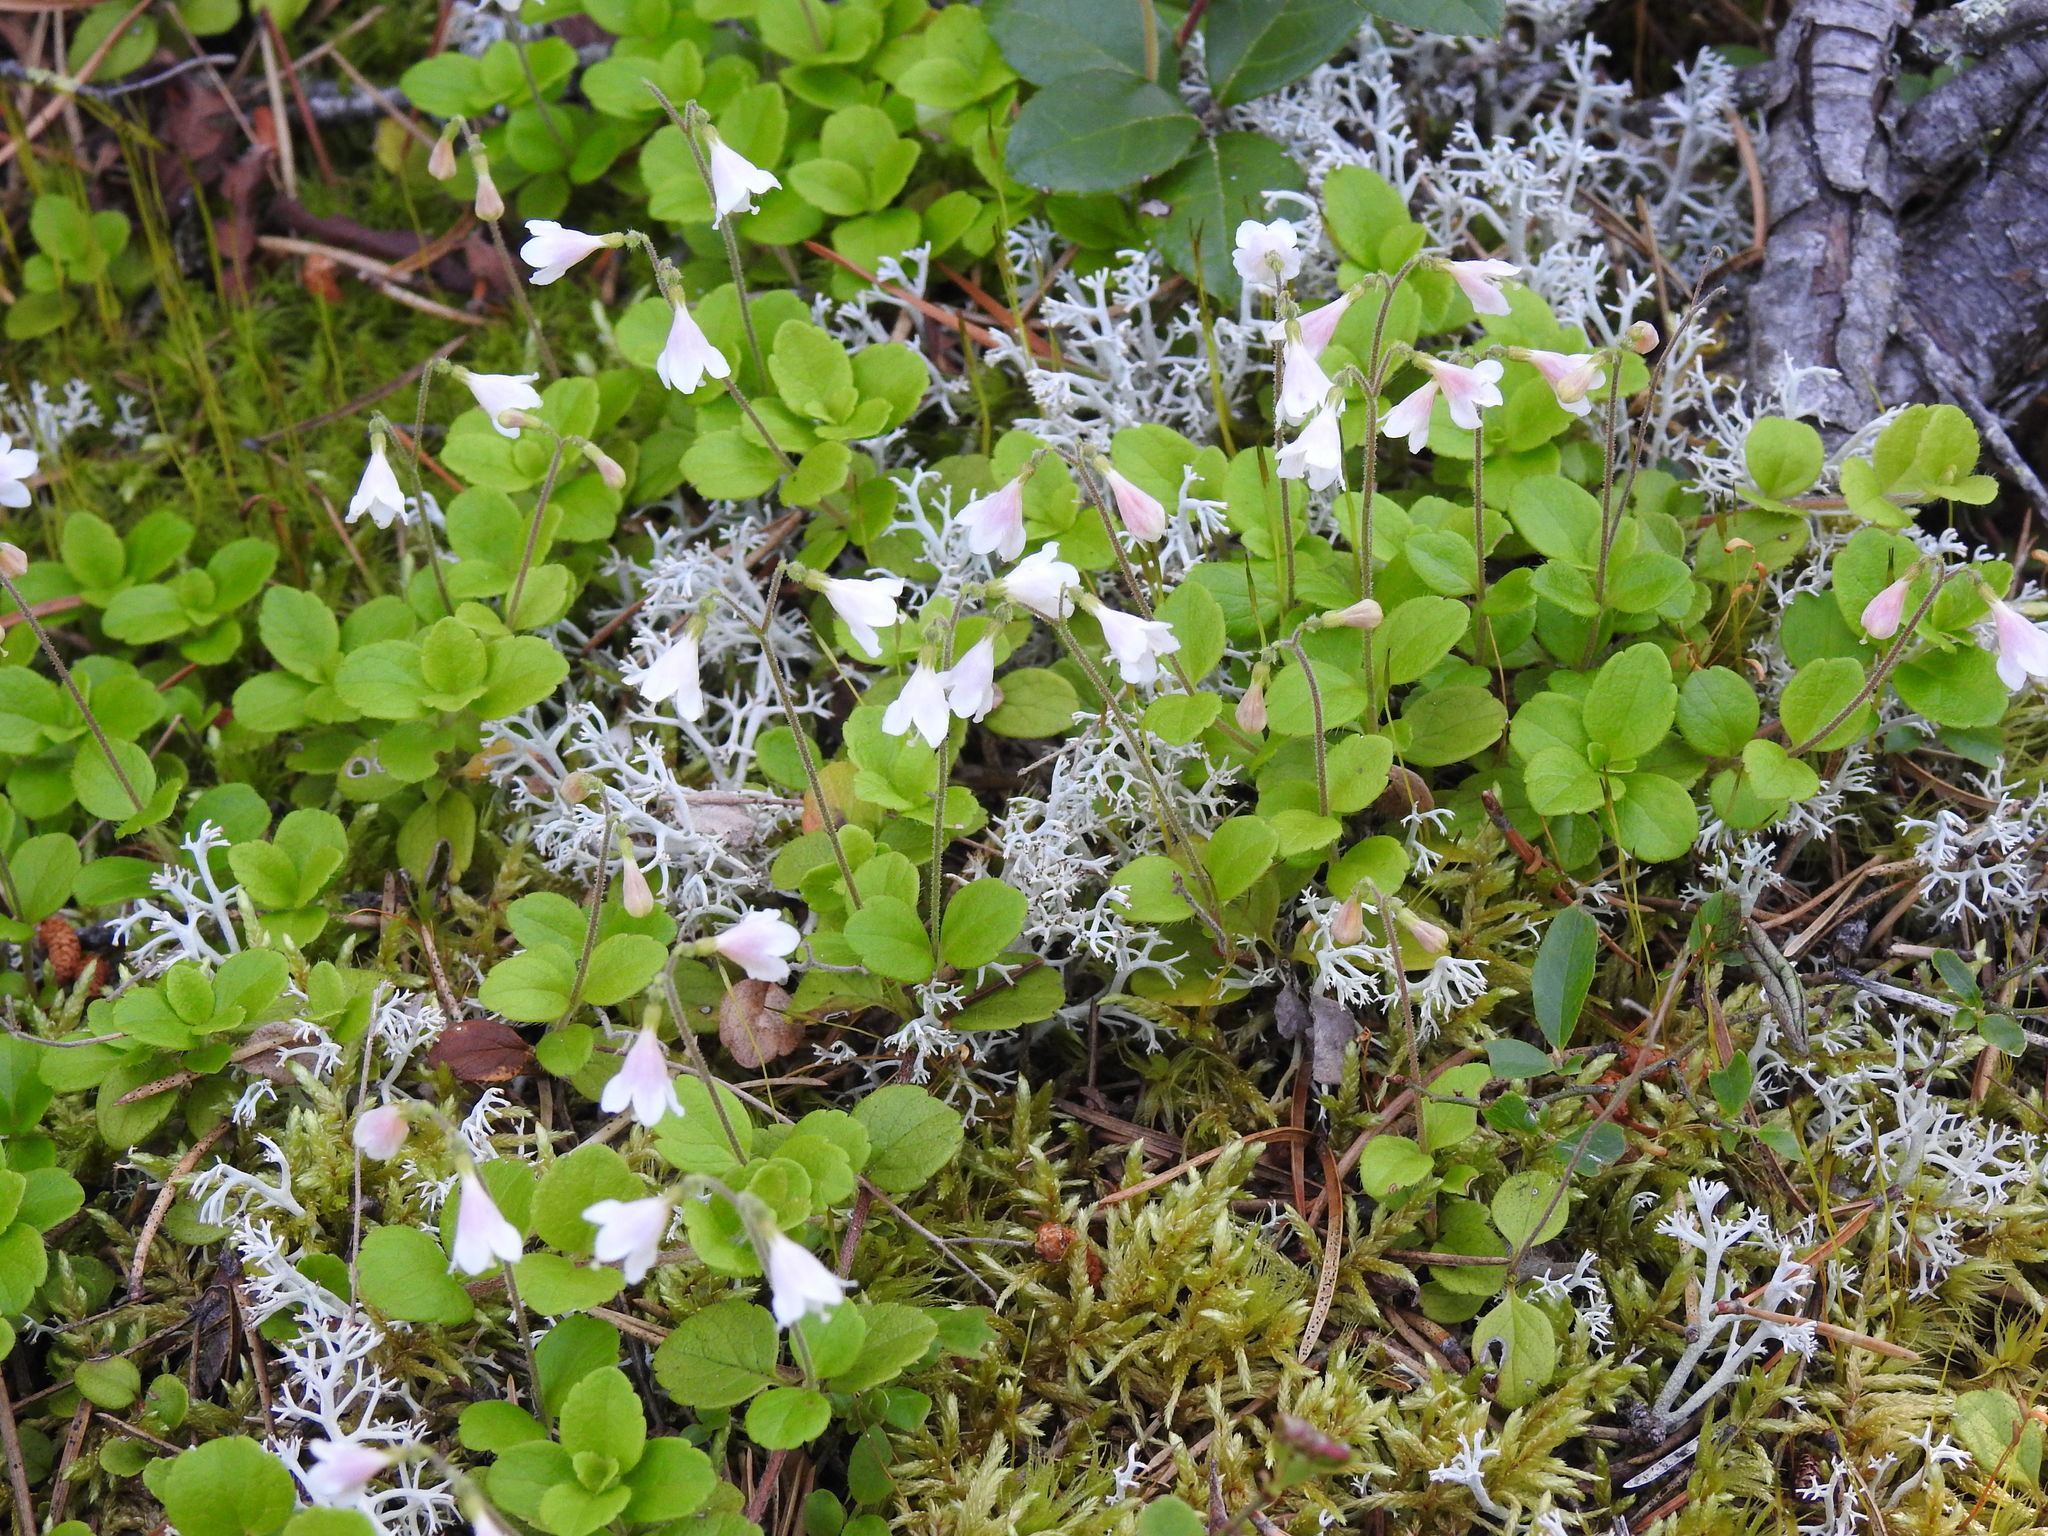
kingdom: Plantae
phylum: Tracheophyta
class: Magnoliopsida
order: Dipsacales
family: Caprifoliaceae
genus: Linnaea
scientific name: Linnaea borealis
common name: Twinflower
